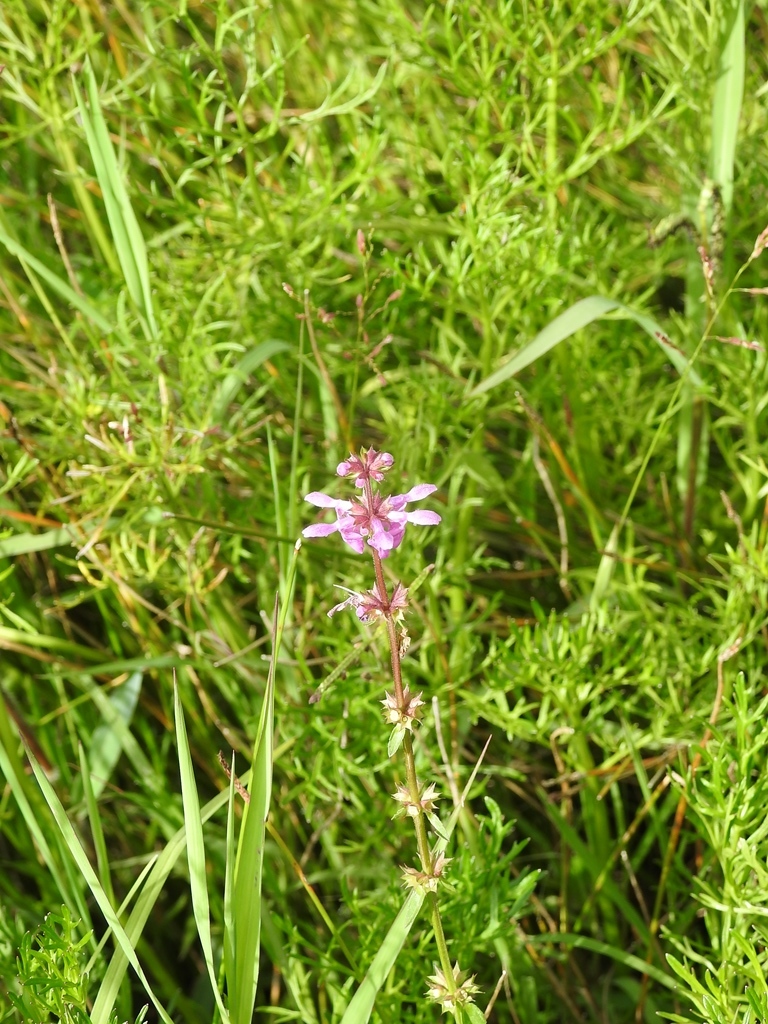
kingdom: Plantae
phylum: Tracheophyta
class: Magnoliopsida
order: Lamiales
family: Lamiaceae
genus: Stachys
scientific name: Stachys harleyana
